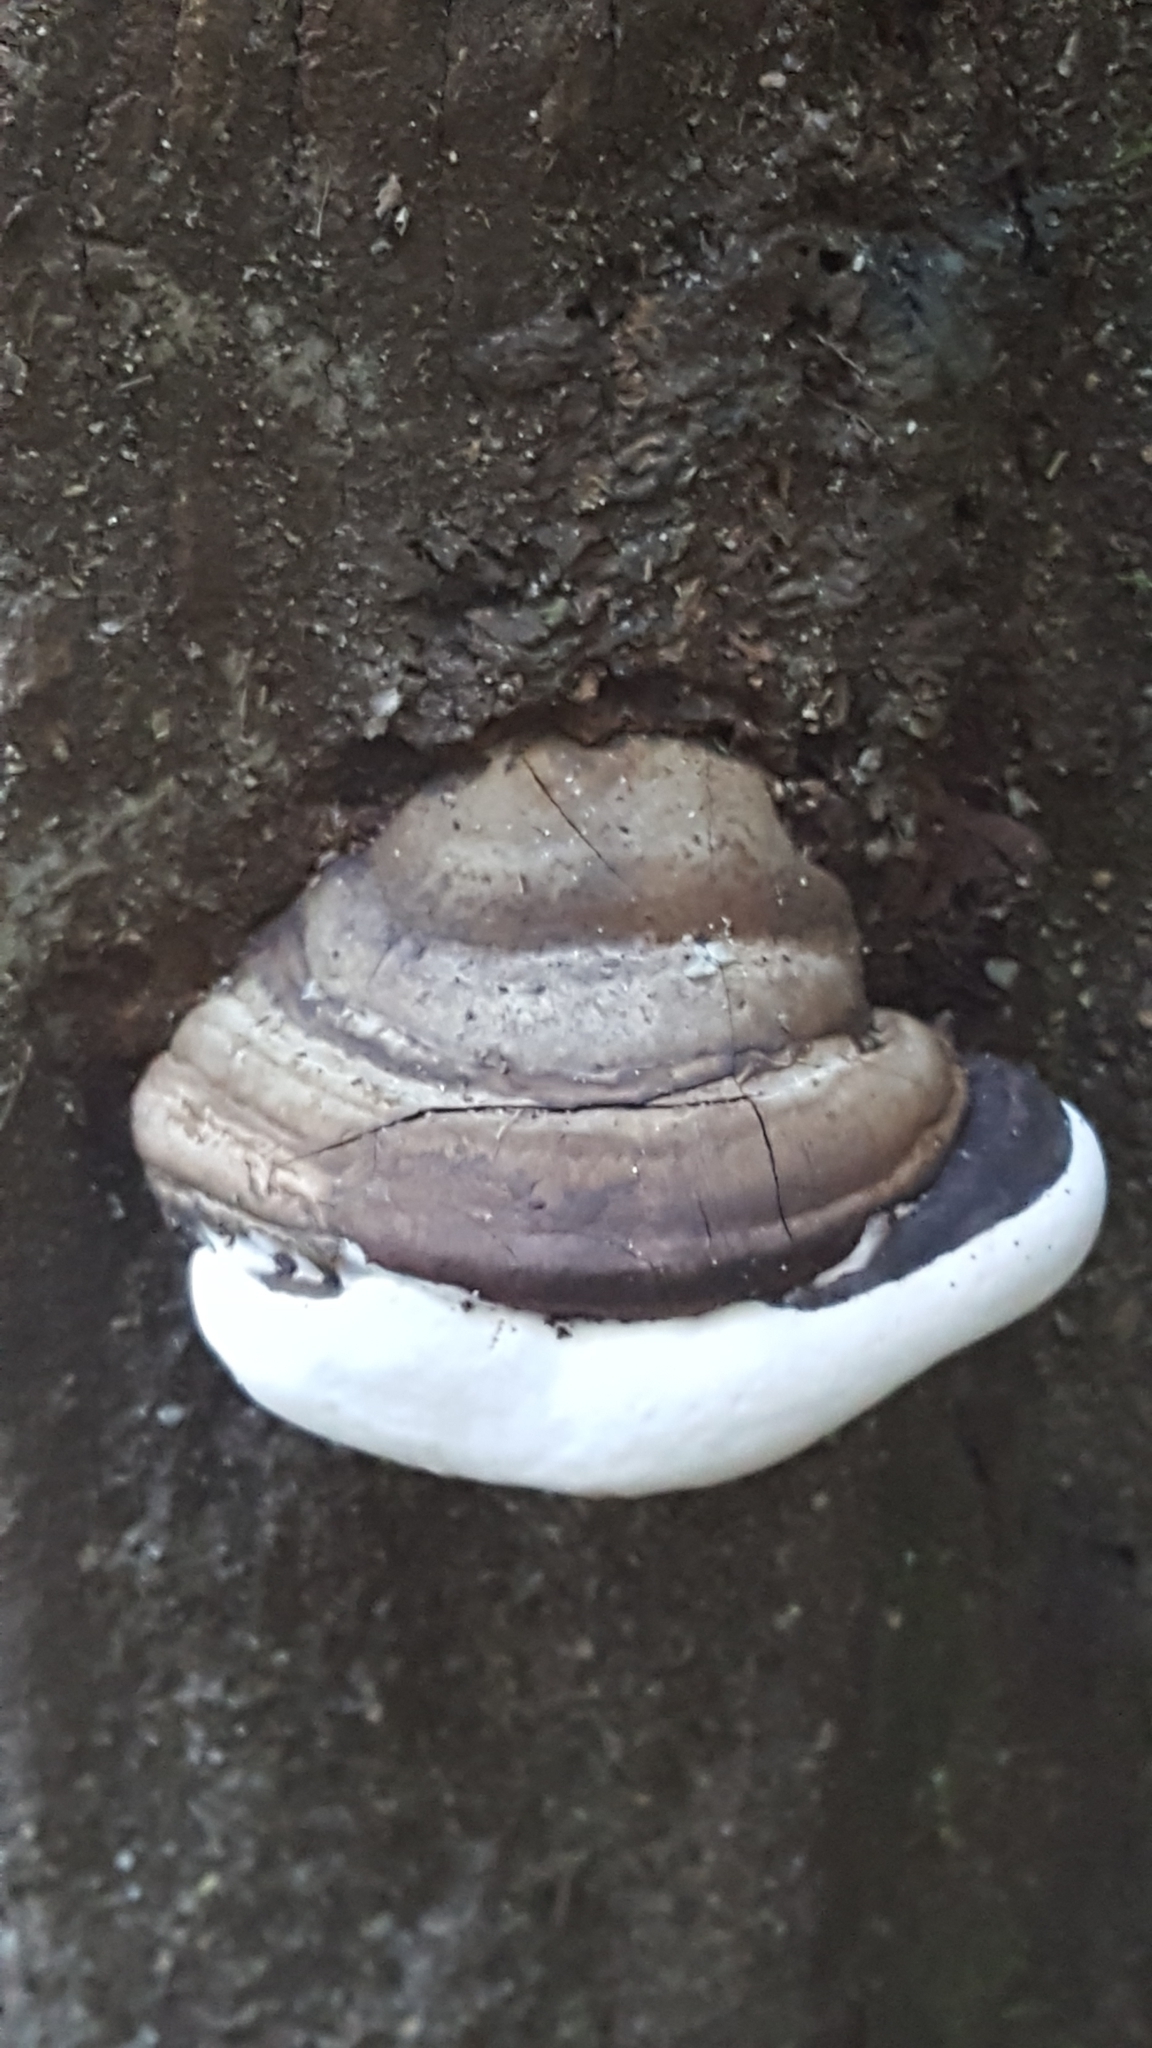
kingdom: Fungi
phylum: Basidiomycota
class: Agaricomycetes
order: Polyporales
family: Polyporaceae
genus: Ganoderma
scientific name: Ganoderma applanatum
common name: Artist's bracket
